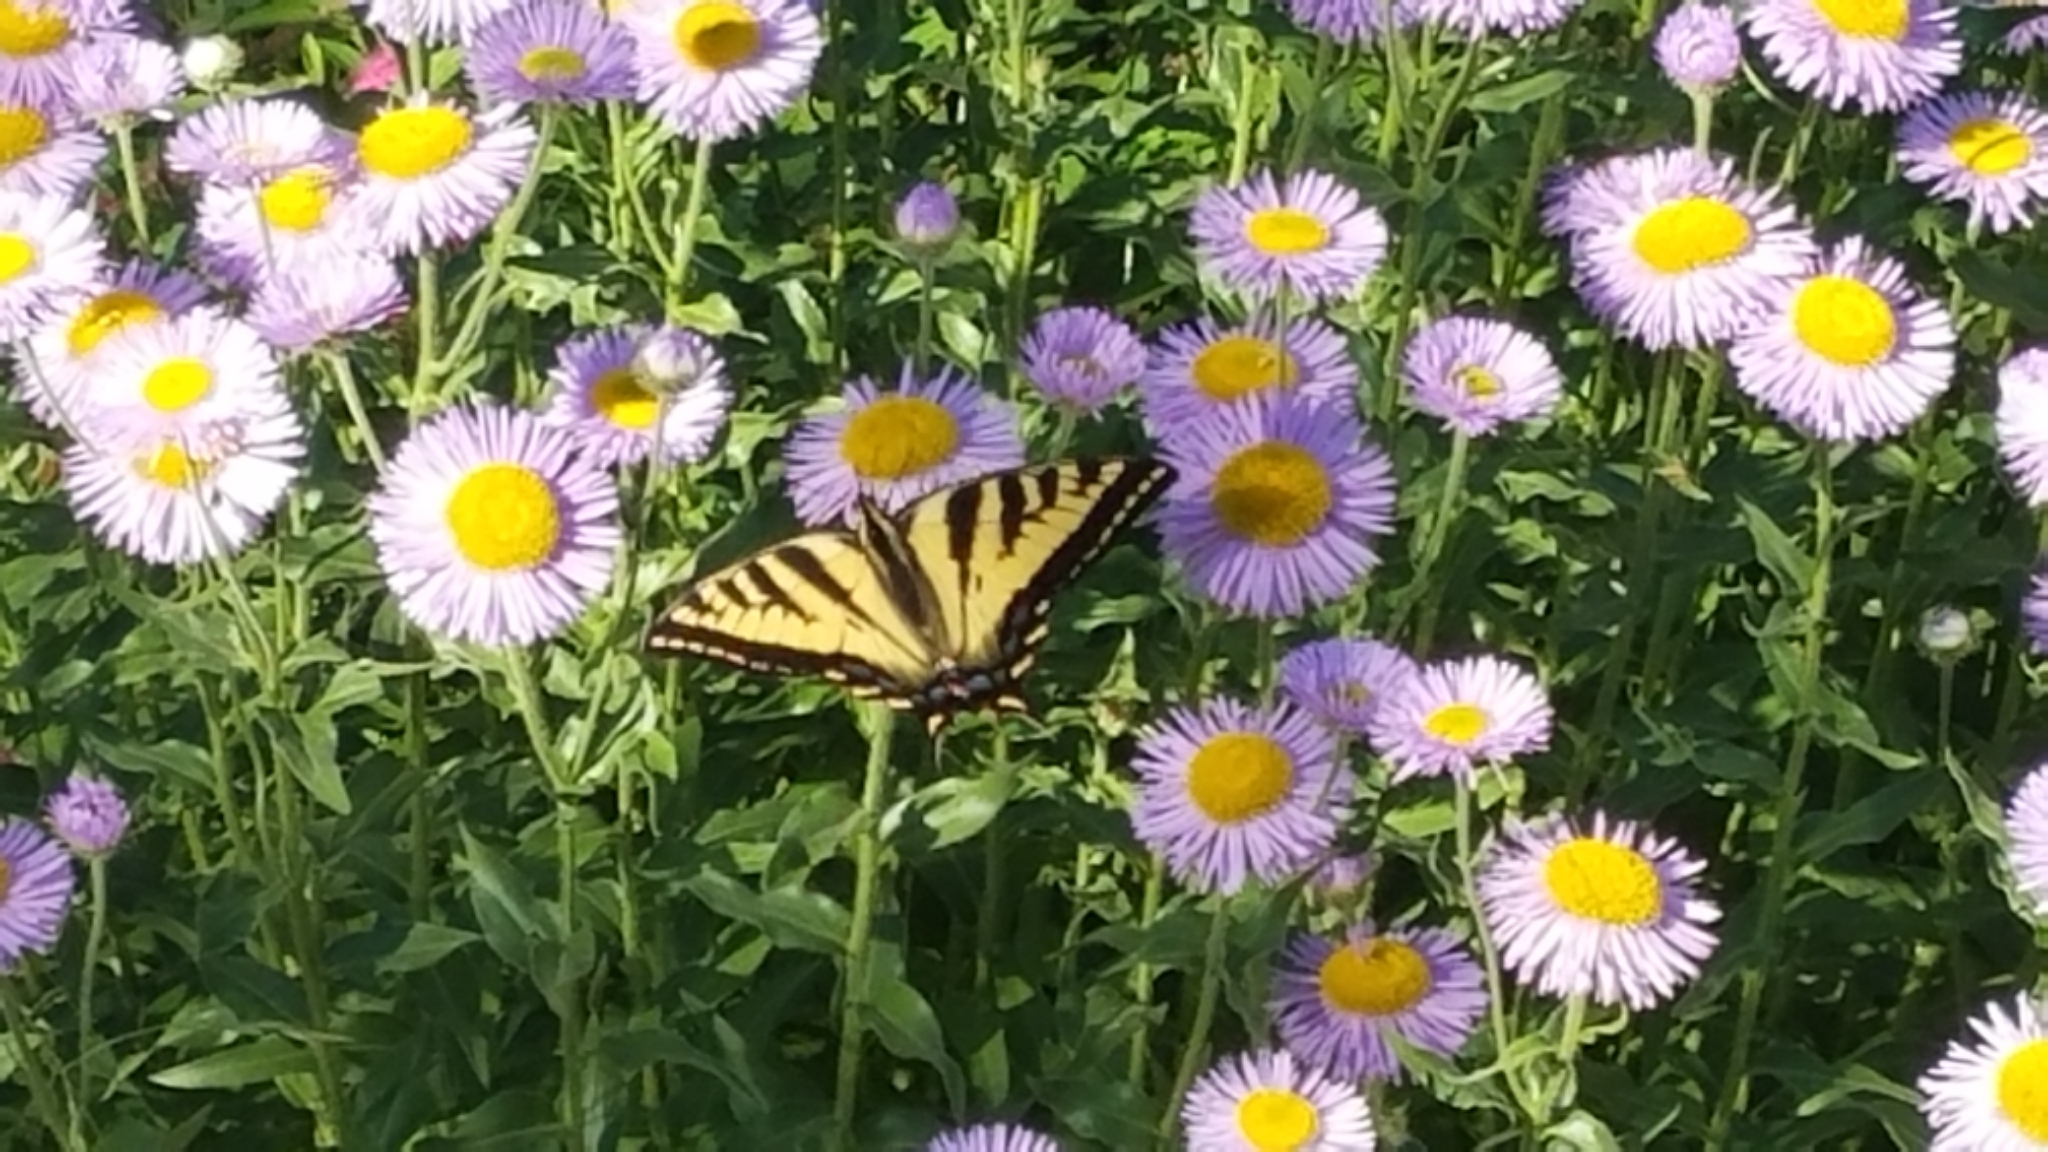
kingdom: Animalia
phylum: Arthropoda
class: Insecta
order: Lepidoptera
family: Papilionidae
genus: Papilio
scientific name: Papilio rutulus
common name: Western tiger swallowtail
